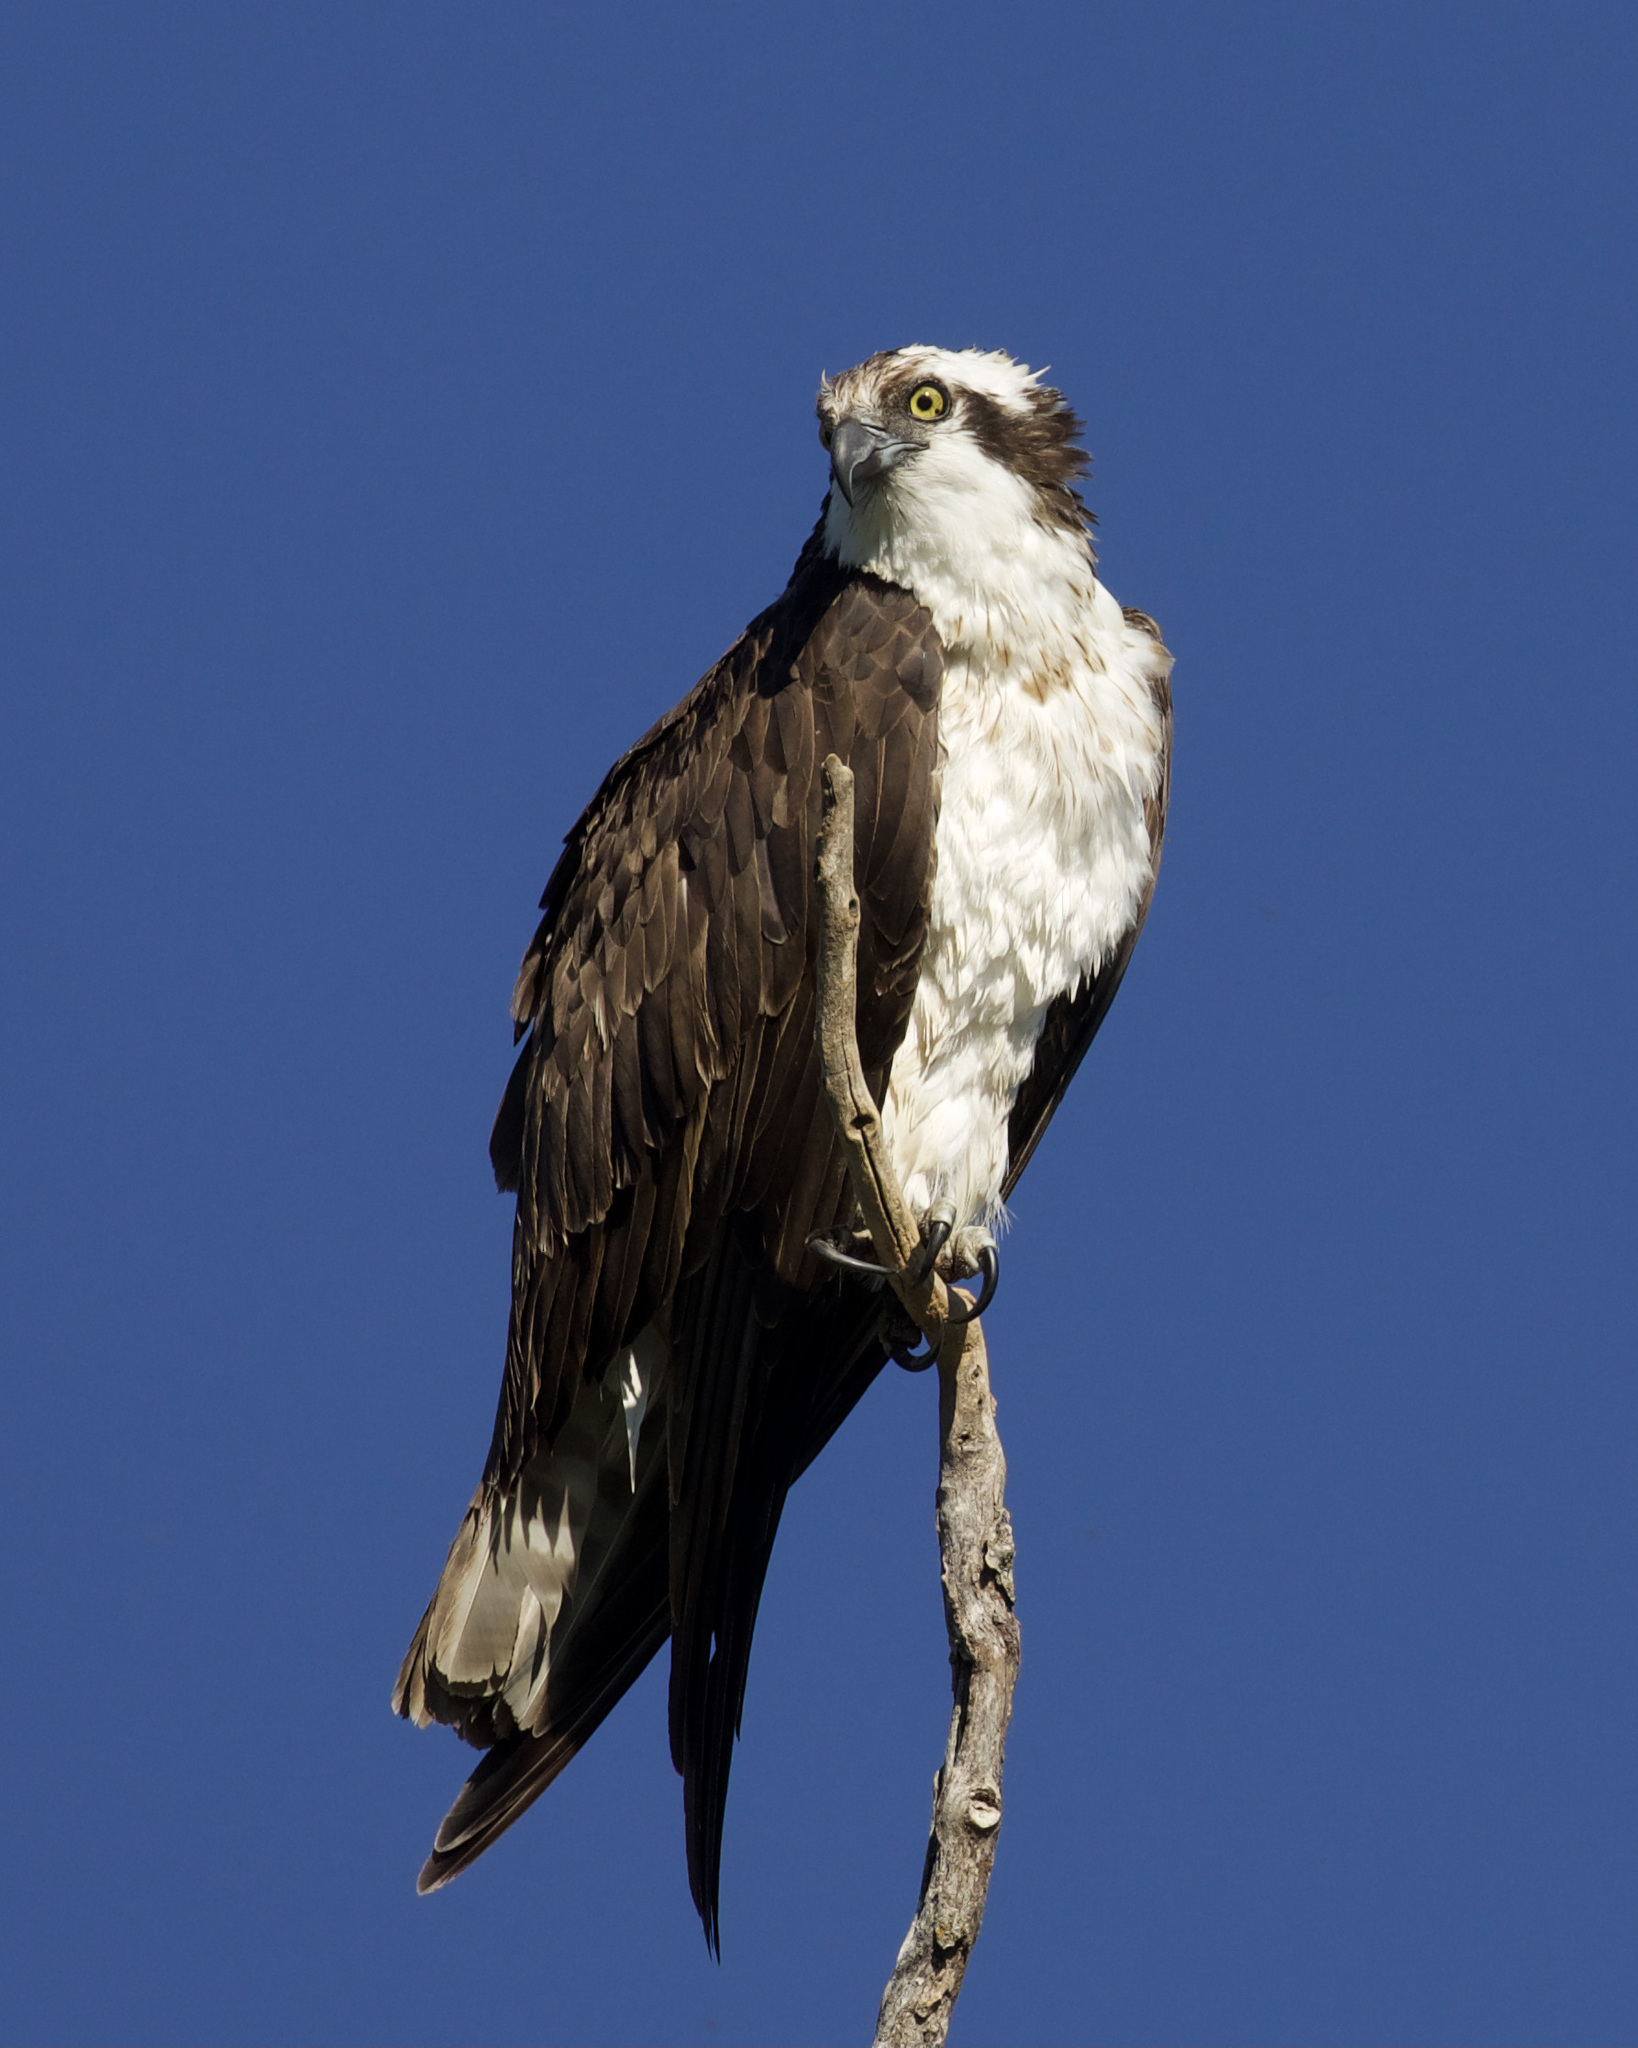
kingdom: Animalia
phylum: Chordata
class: Aves
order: Accipitriformes
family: Pandionidae
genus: Pandion
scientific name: Pandion haliaetus
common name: Osprey
